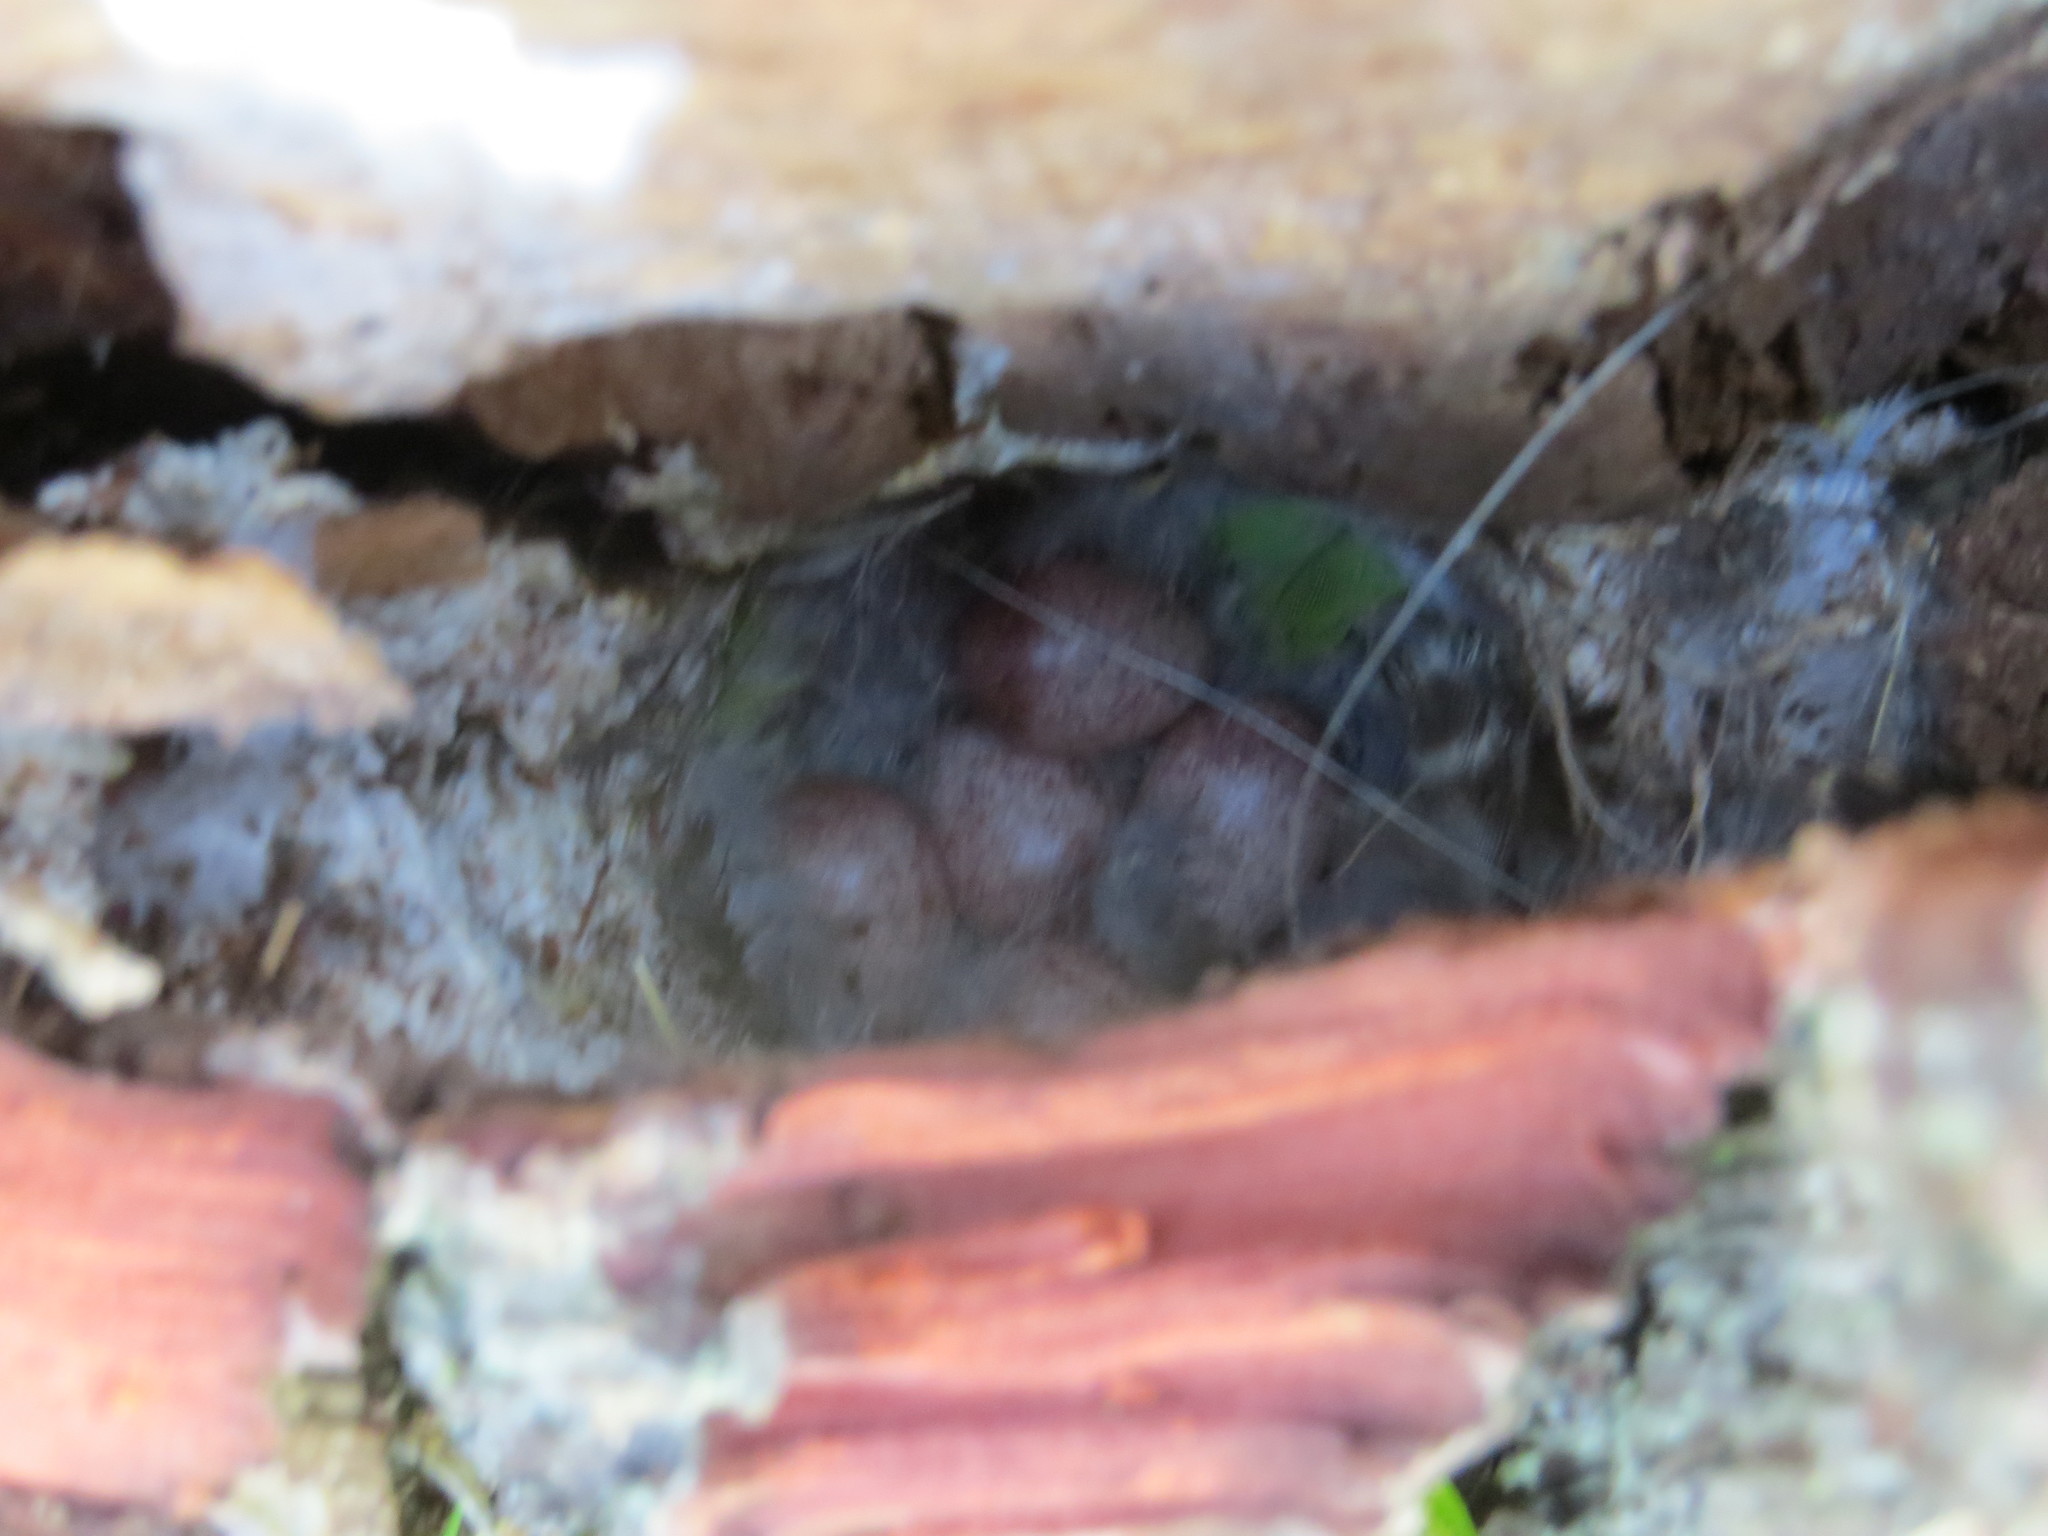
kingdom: Animalia
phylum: Chordata
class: Aves
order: Passeriformes
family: Troglodytidae
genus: Troglodytes
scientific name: Troglodytes aedon
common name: House wren
